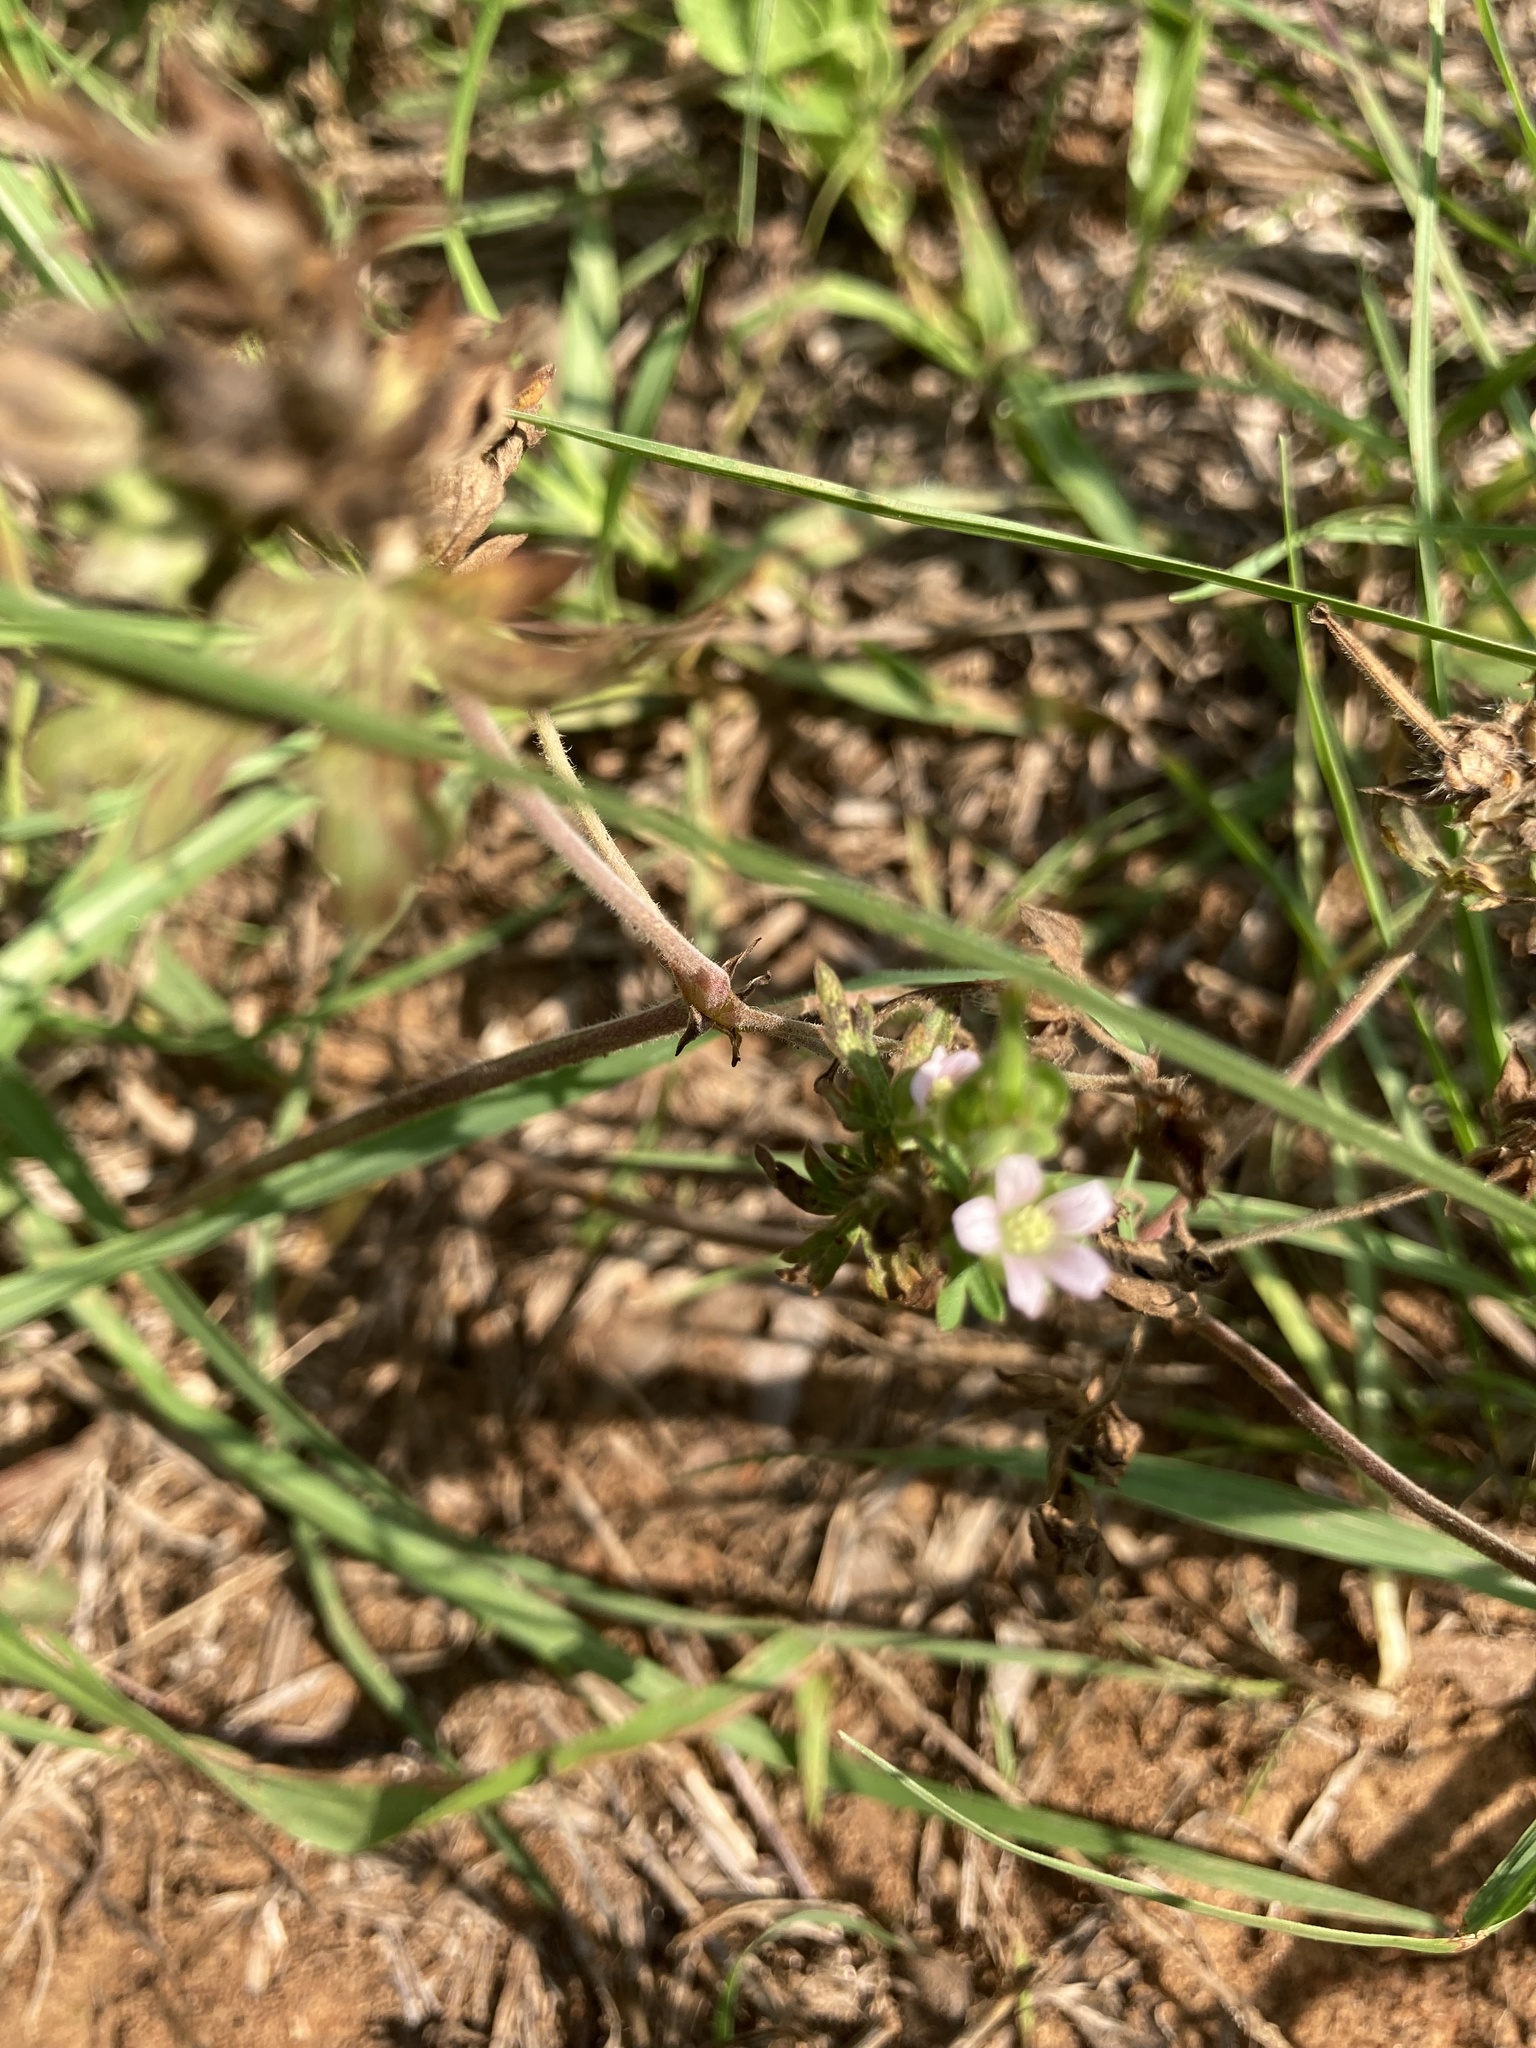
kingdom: Plantae
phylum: Tracheophyta
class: Magnoliopsida
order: Geraniales
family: Geraniaceae
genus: Geranium
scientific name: Geranium carolinianum
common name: Carolina crane's-bill
